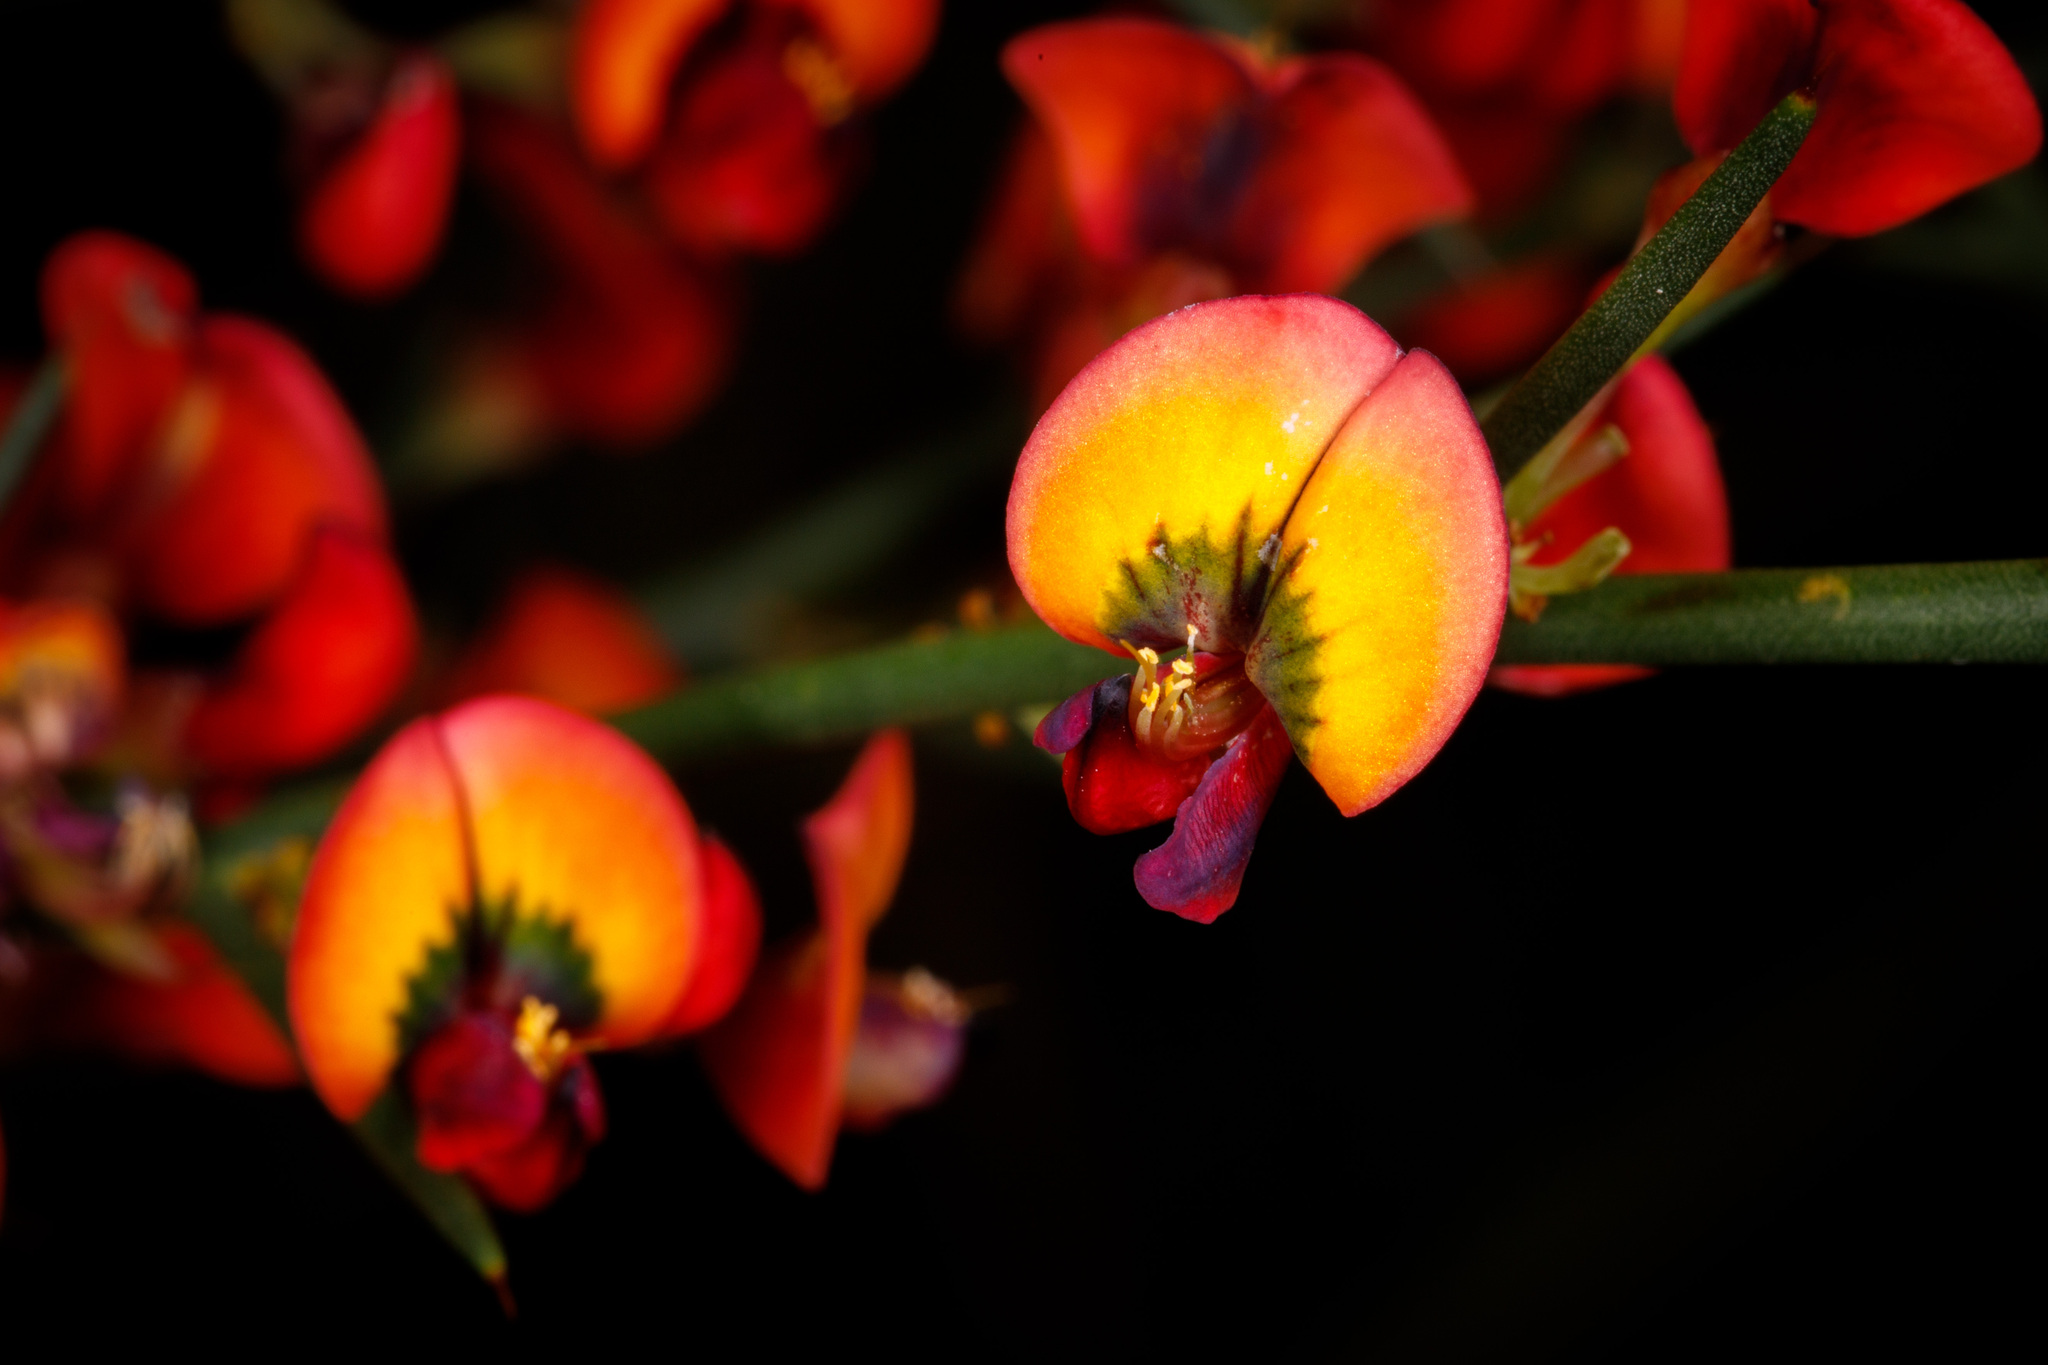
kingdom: Plantae
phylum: Tracheophyta
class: Magnoliopsida
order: Fabales
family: Fabaceae
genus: Daviesia
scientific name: Daviesia physodes
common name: Prickly bitter pea
